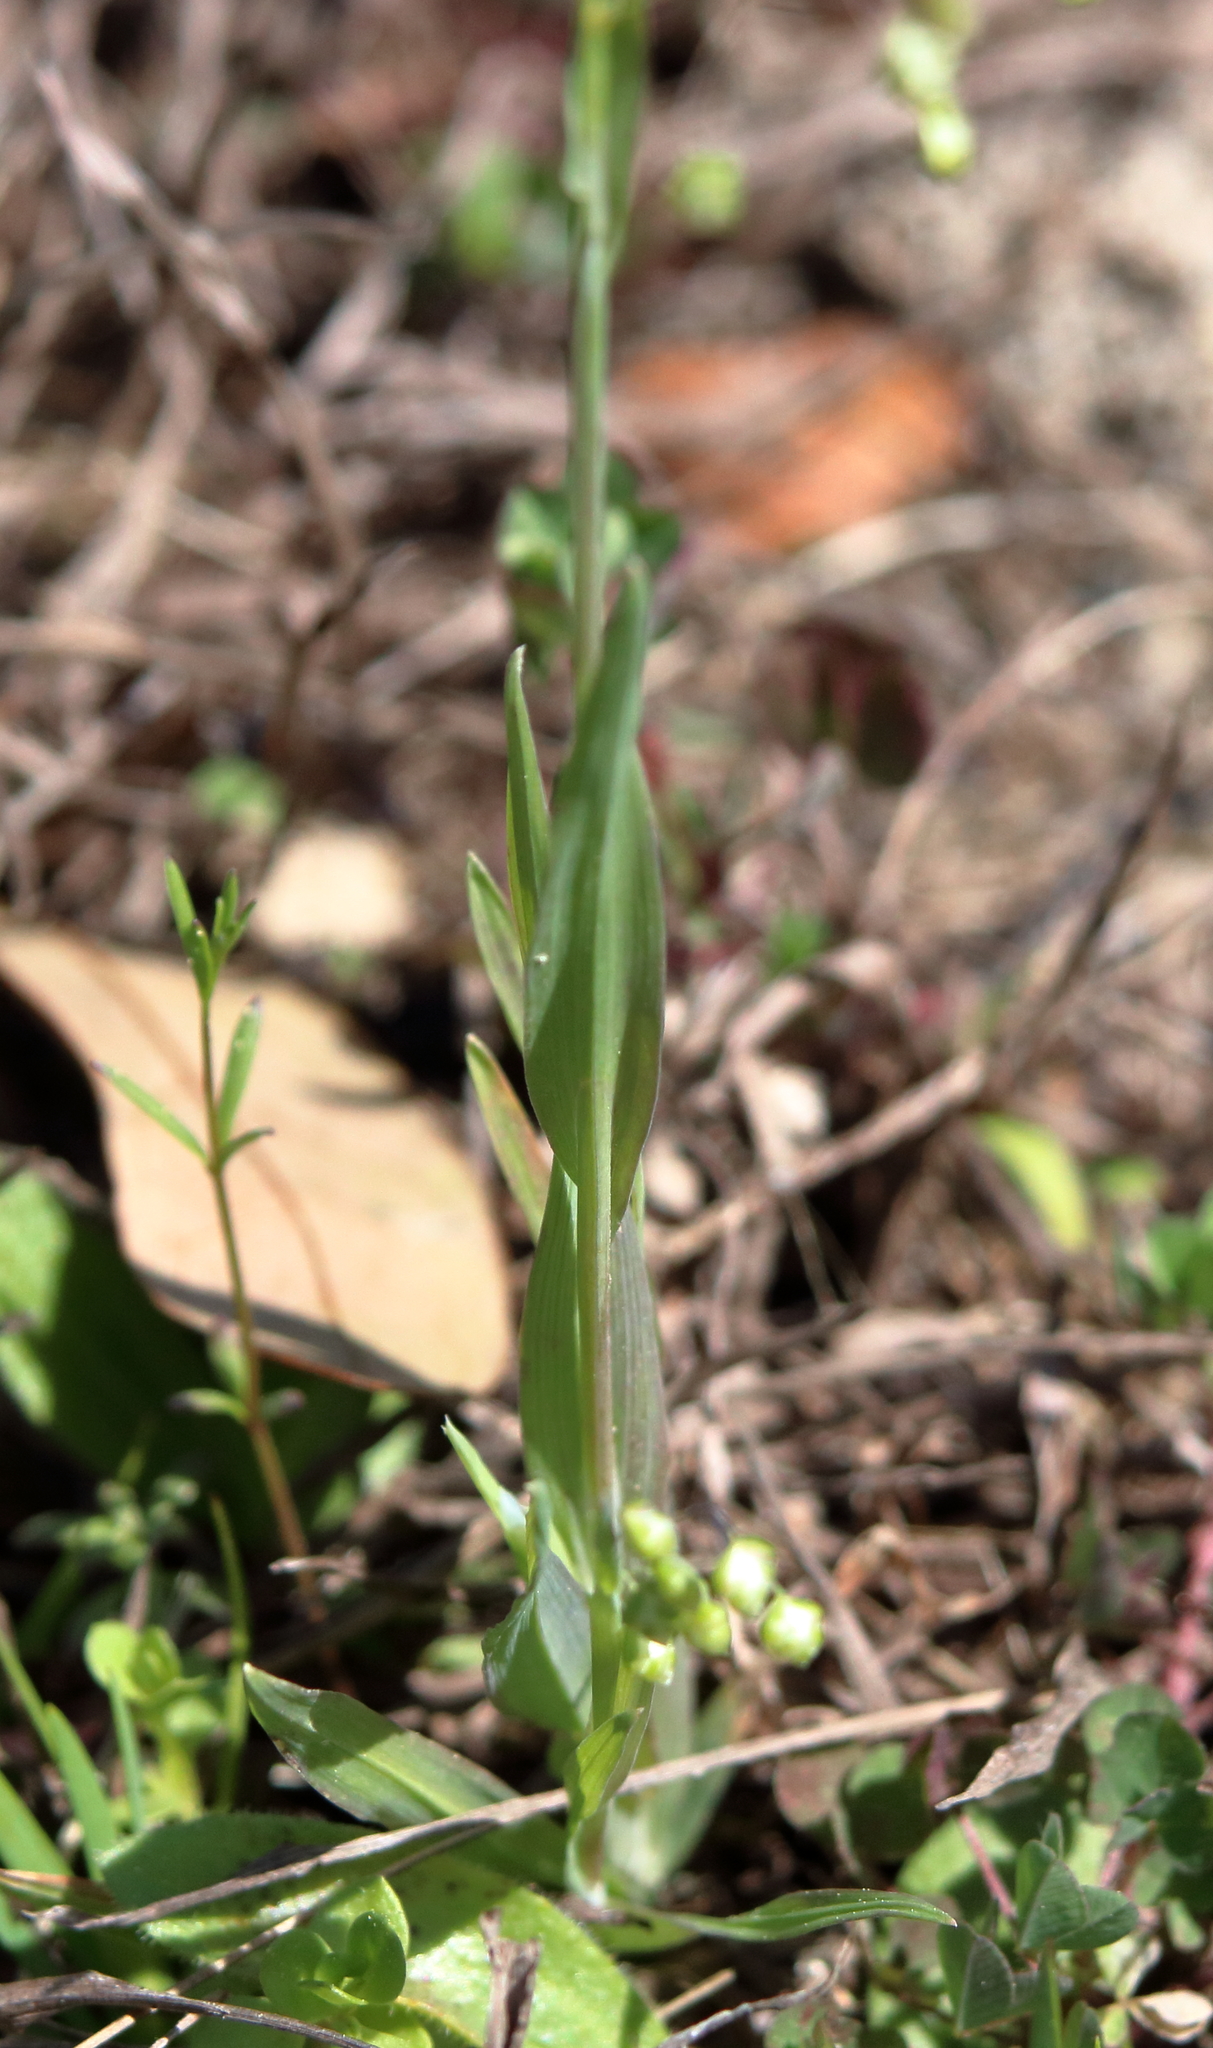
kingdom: Plantae
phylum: Tracheophyta
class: Liliopsida
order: Poales
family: Poaceae
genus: Briza
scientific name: Briza minor
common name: Lesser quaking-grass
